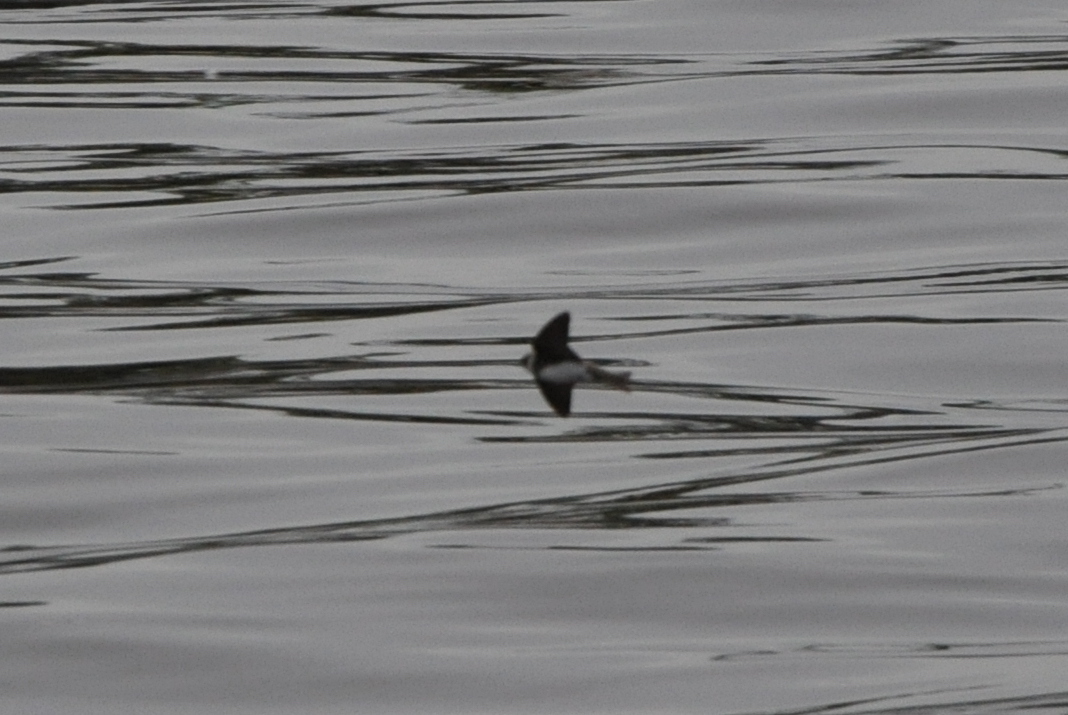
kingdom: Animalia
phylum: Chordata
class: Aves
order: Passeriformes
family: Hirundinidae
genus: Riparia
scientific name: Riparia riparia
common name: Sand martin
